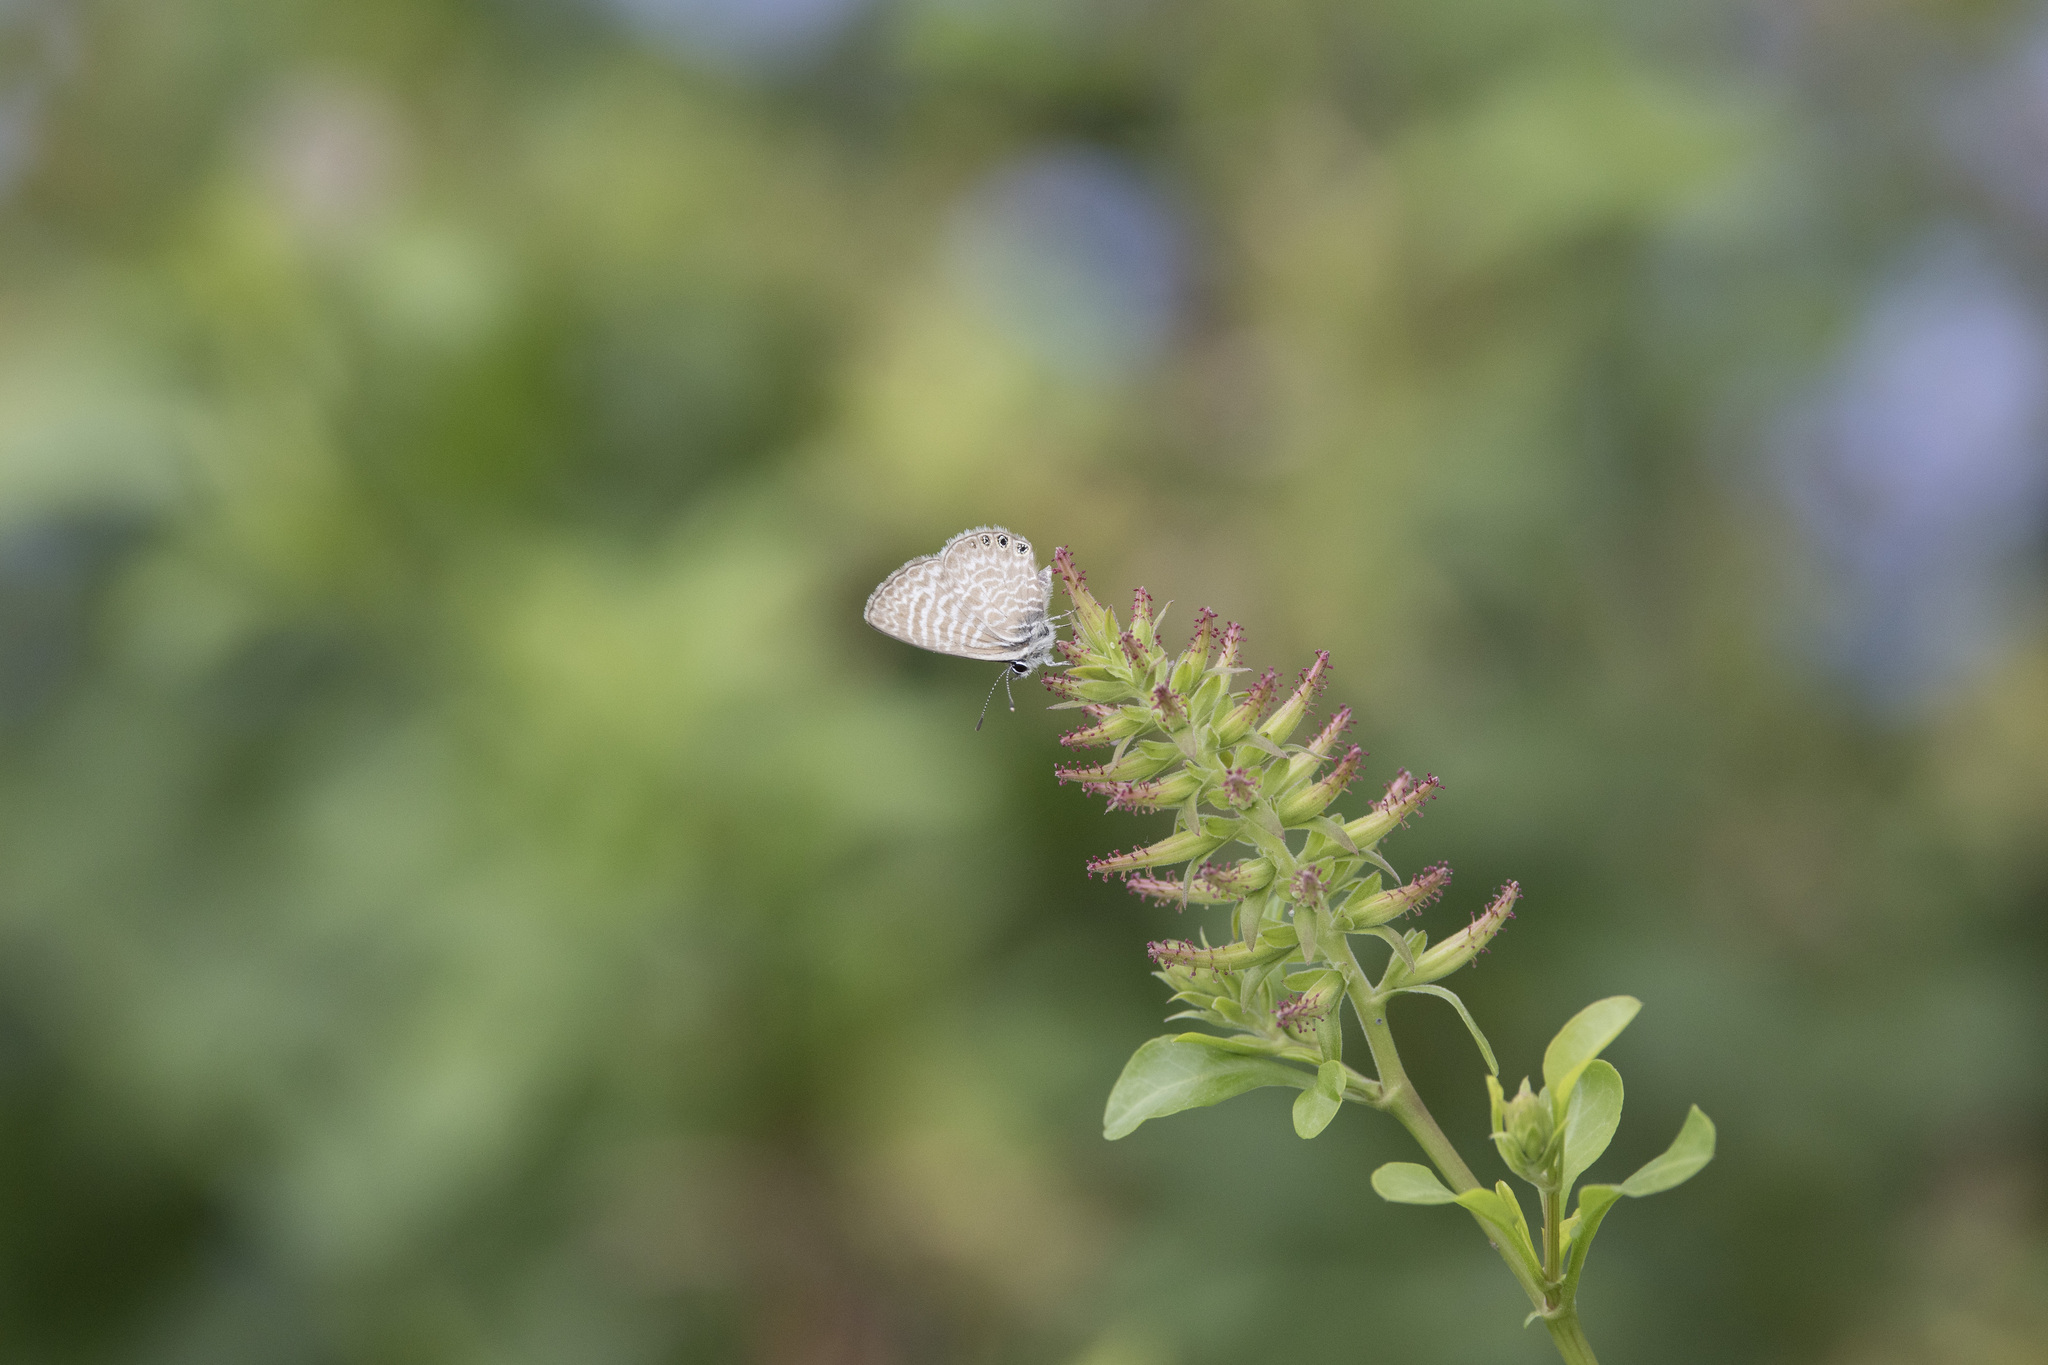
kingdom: Animalia
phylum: Arthropoda
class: Insecta
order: Lepidoptera
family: Lycaenidae
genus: Leptotes
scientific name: Leptotes trigemmatus
